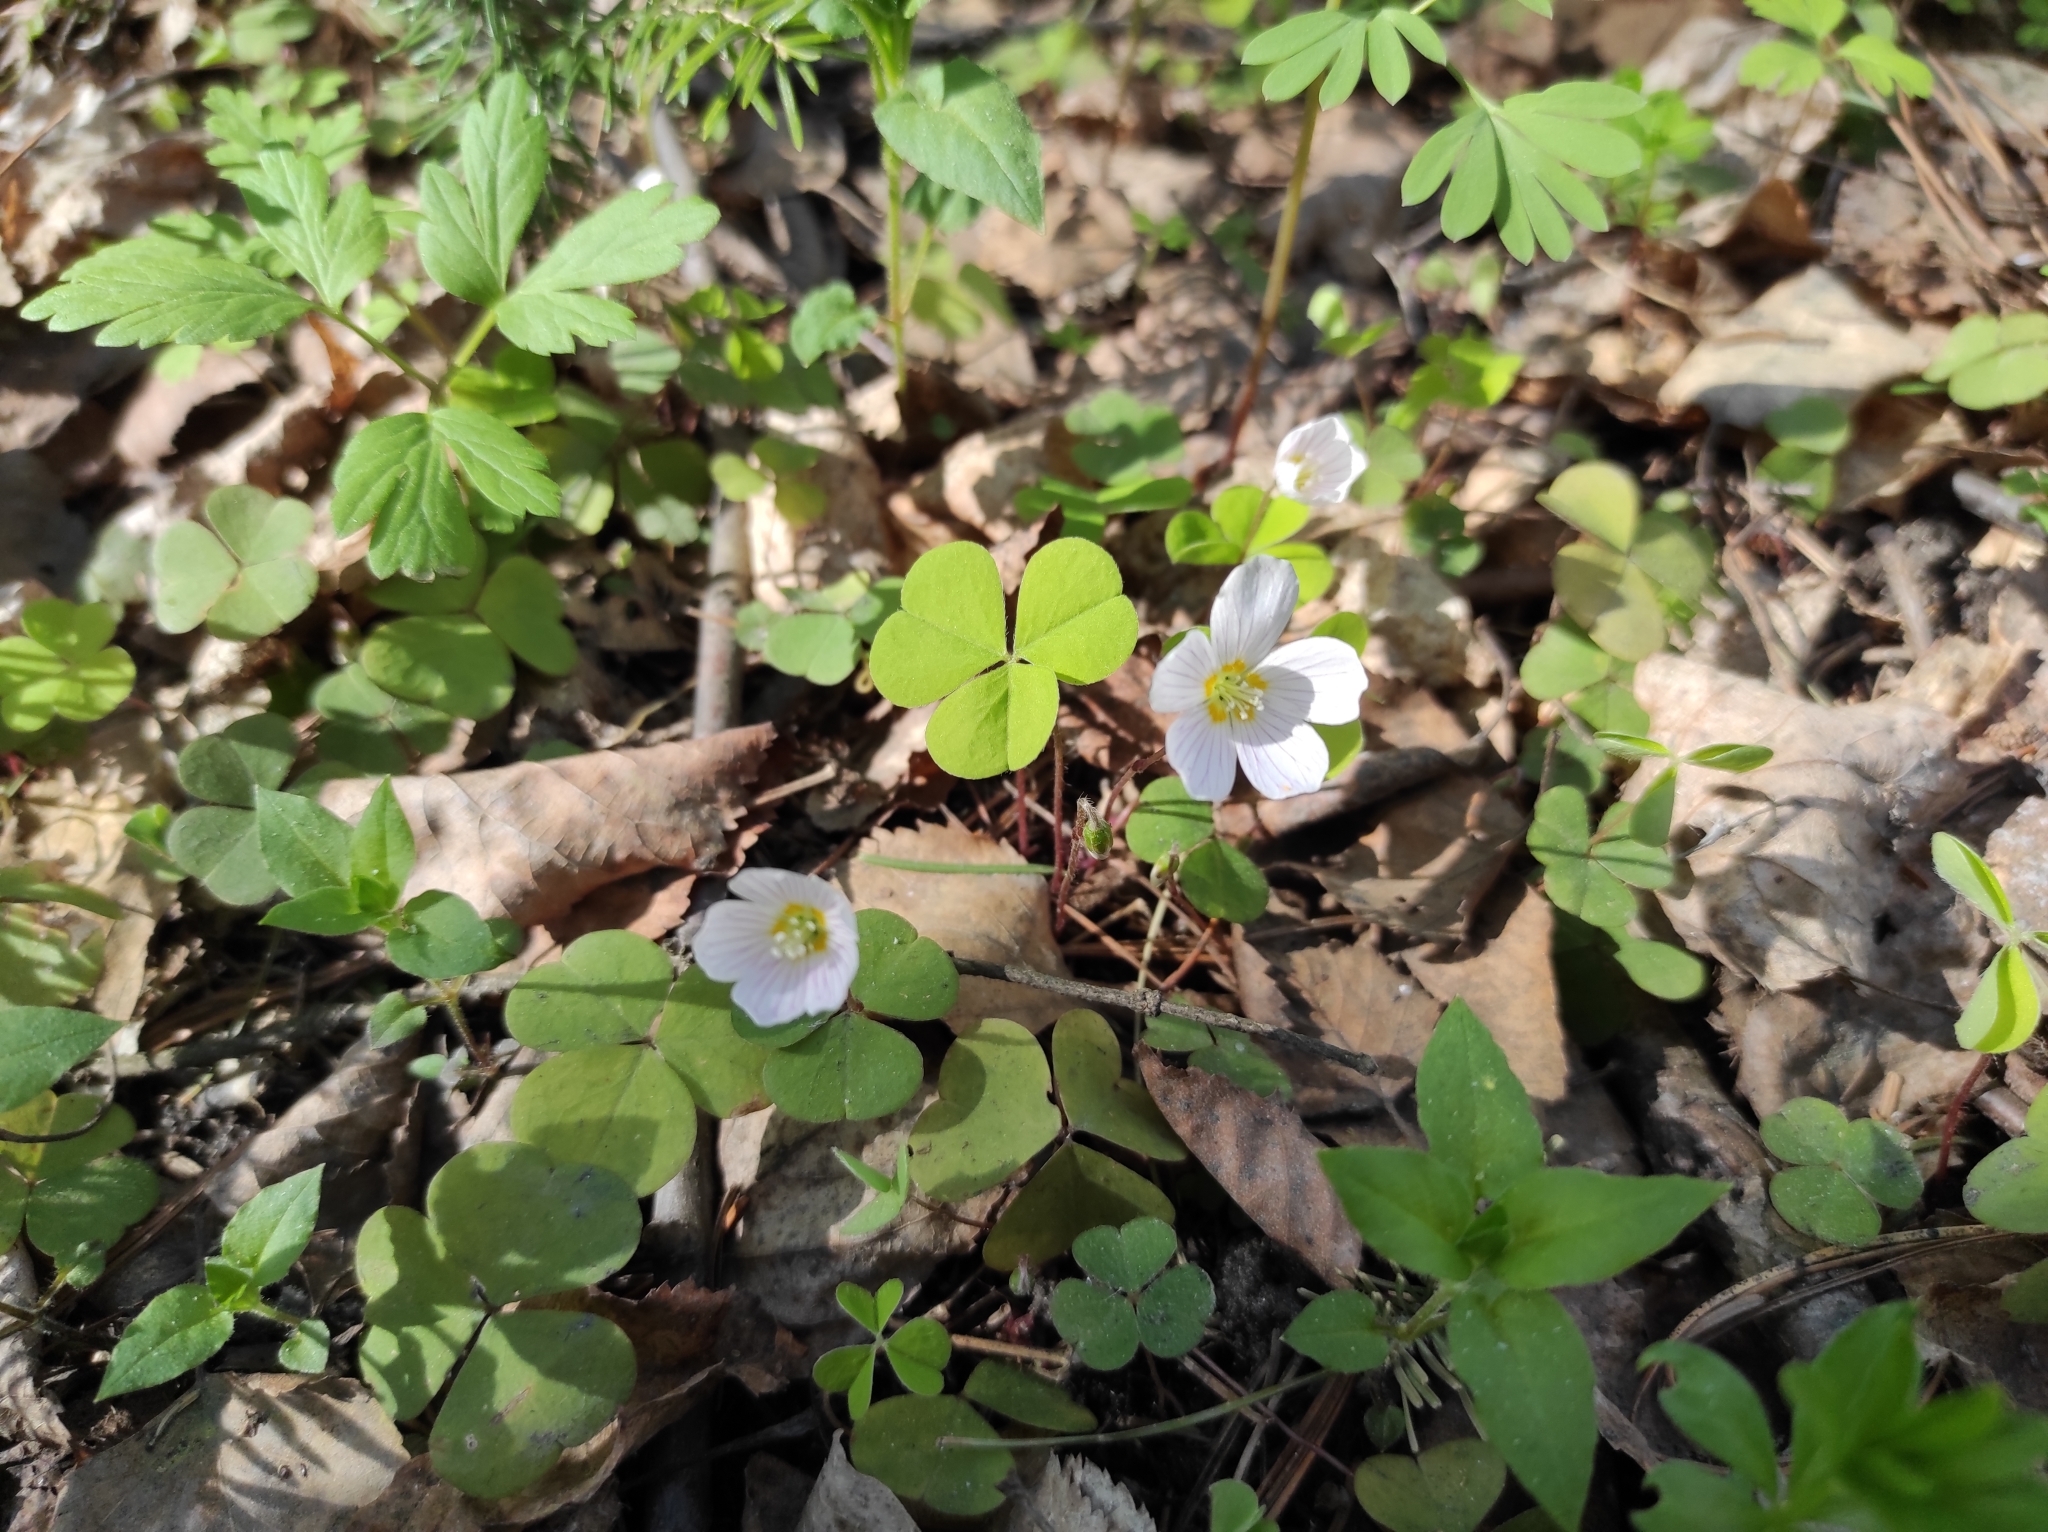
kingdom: Plantae
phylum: Tracheophyta
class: Magnoliopsida
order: Oxalidales
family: Oxalidaceae
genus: Oxalis
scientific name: Oxalis acetosella
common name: Wood-sorrel
